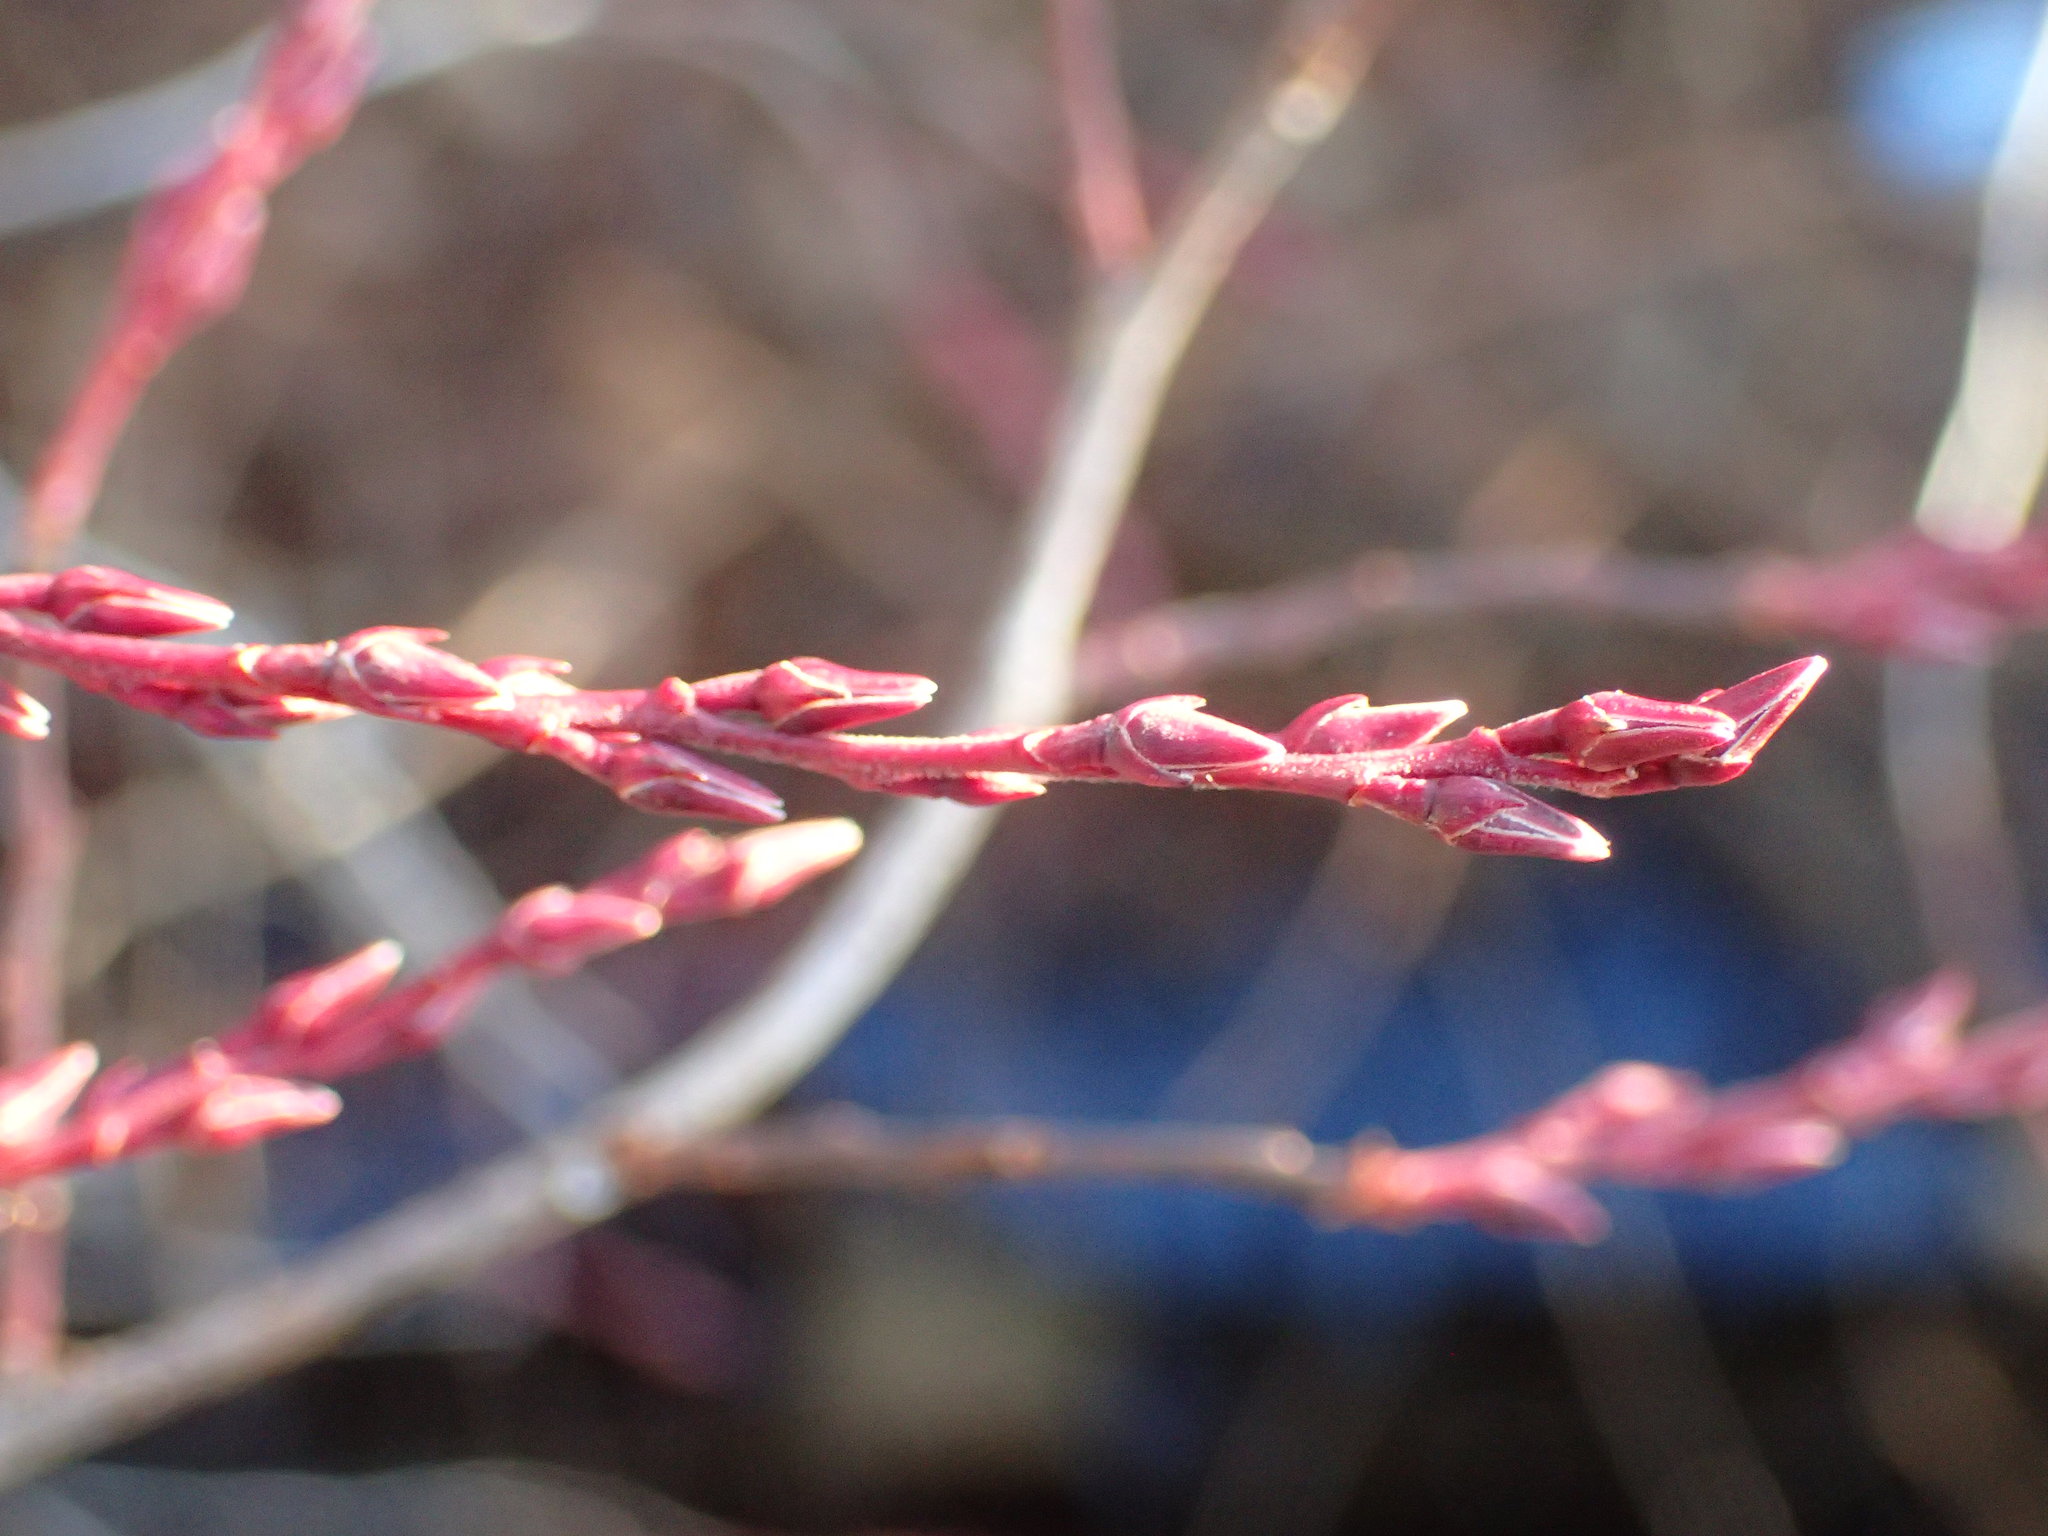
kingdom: Plantae
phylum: Tracheophyta
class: Magnoliopsida
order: Ericales
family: Ericaceae
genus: Eubotrys
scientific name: Eubotrys racemosa
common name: Fetterbush
